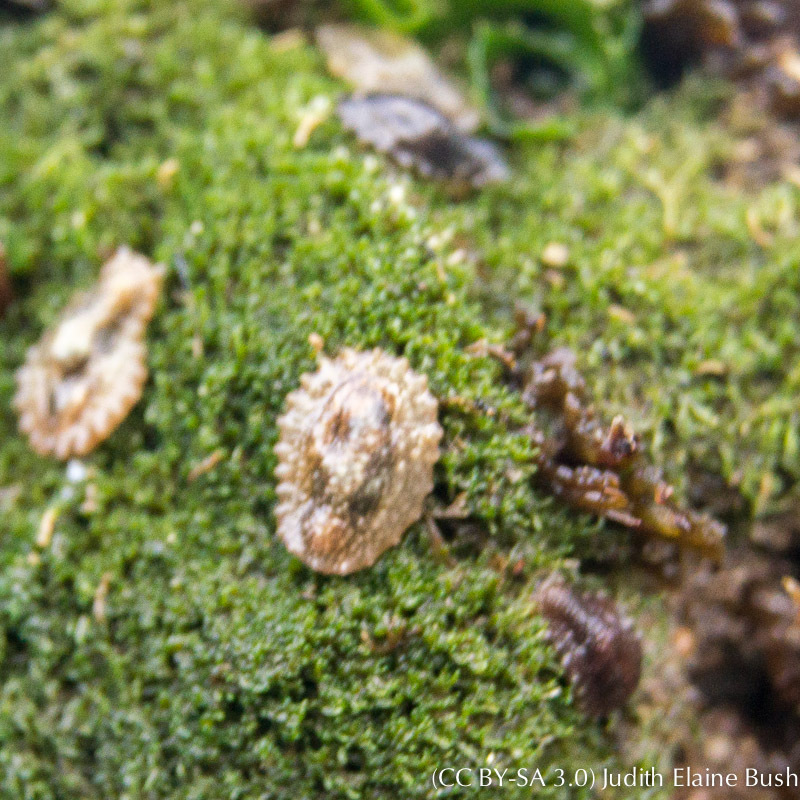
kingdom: Plantae
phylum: Chlorophyta
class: Ulvophyceae
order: Cladophorales
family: Cladophoraceae
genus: Cladophora
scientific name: Cladophora columbiana
